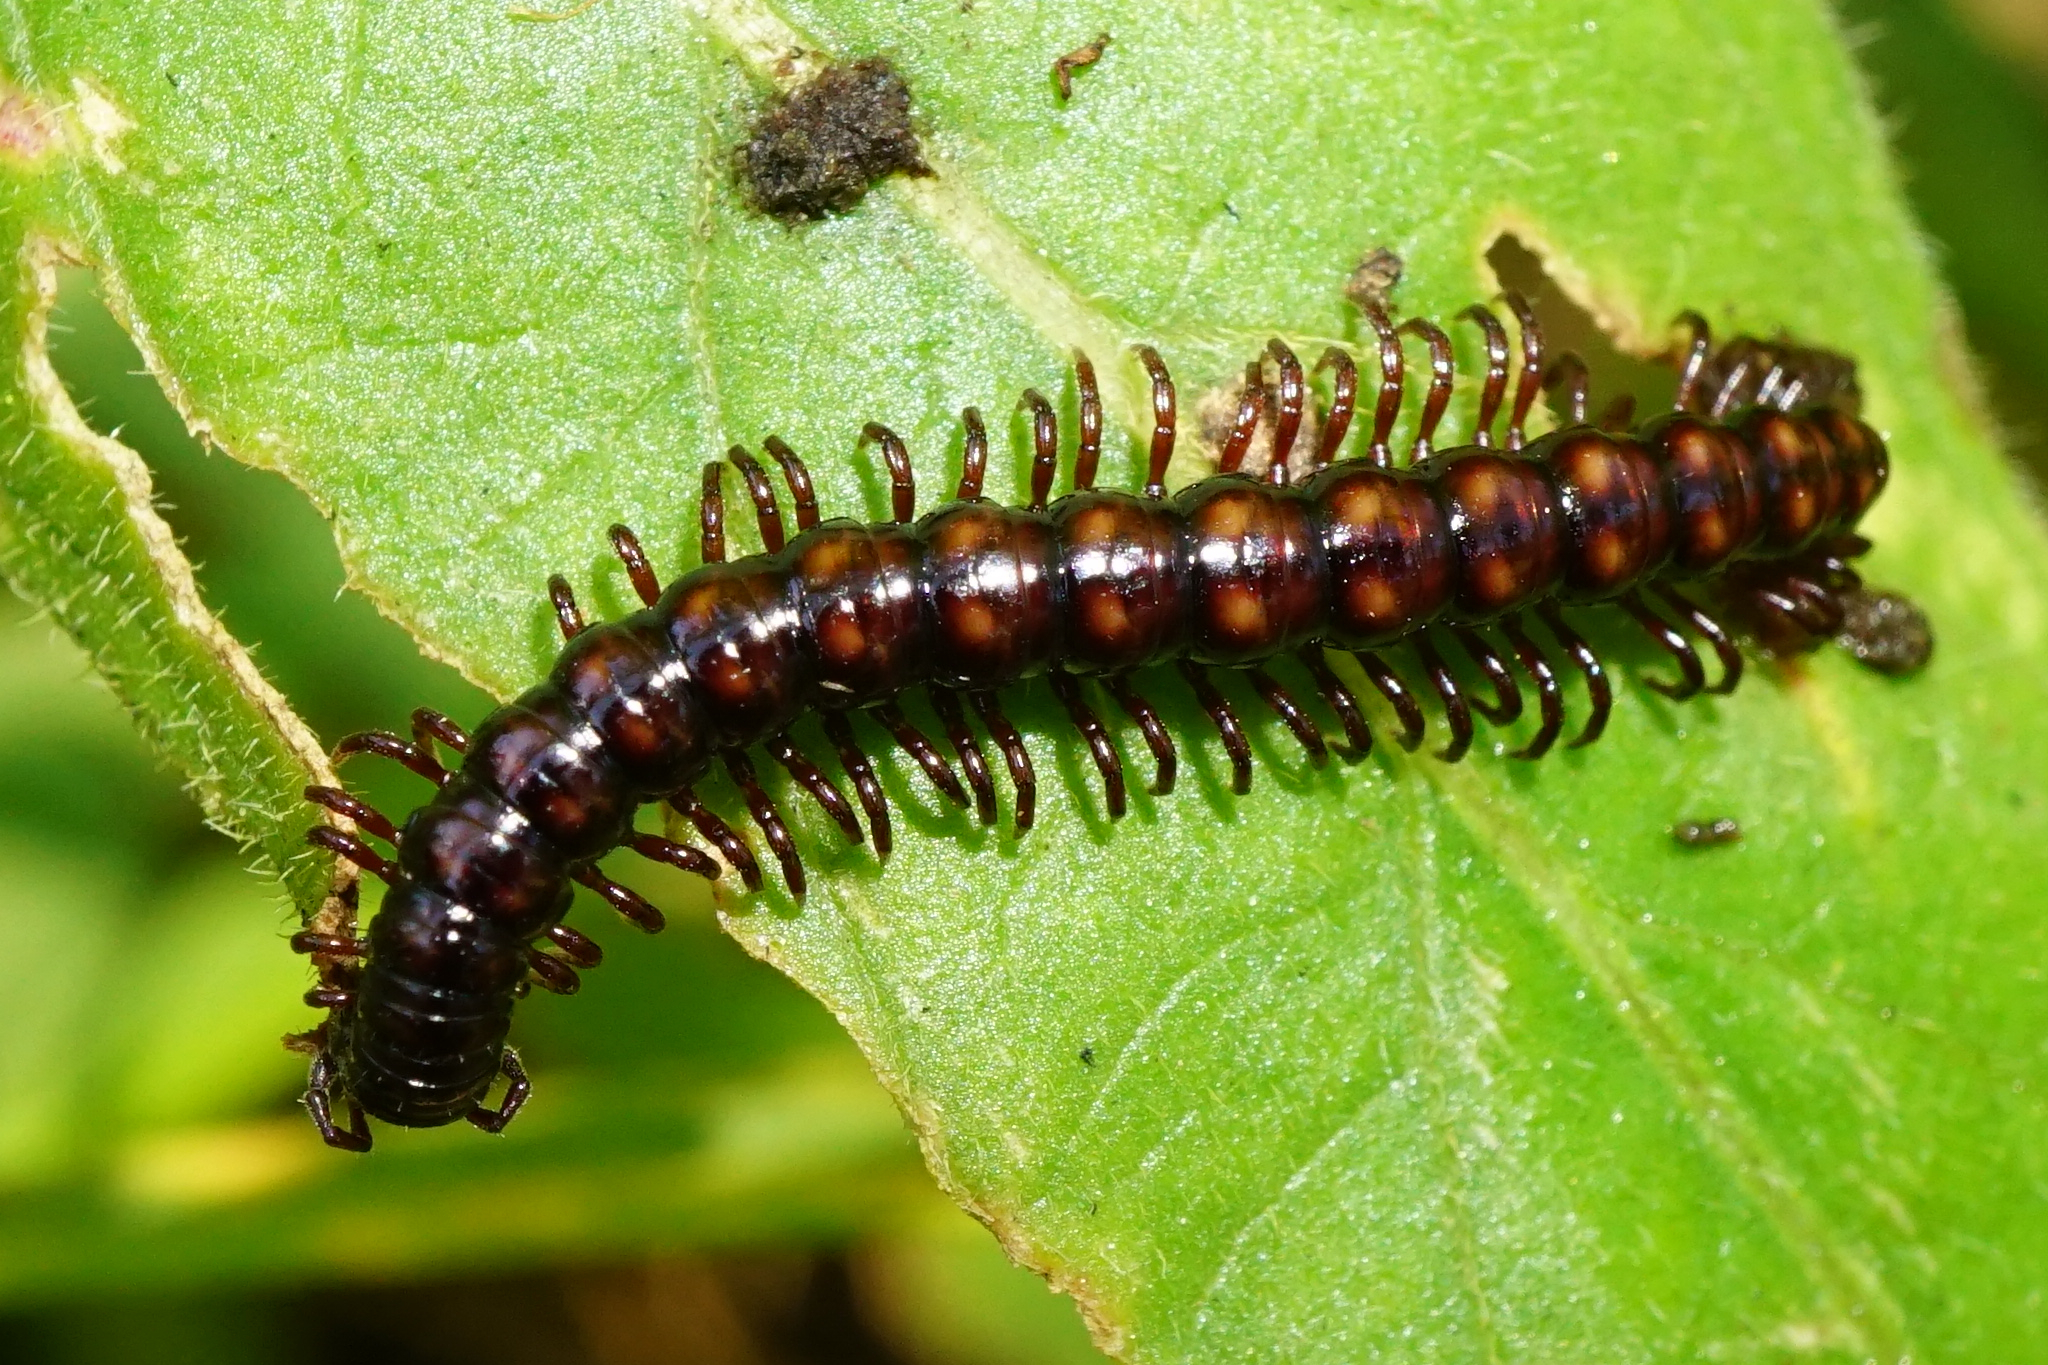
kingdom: Animalia
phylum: Arthropoda
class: Diplopoda
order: Polydesmida
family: Paradoxosomatidae
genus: Strongylosoma
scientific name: Strongylosoma stigmatosus
